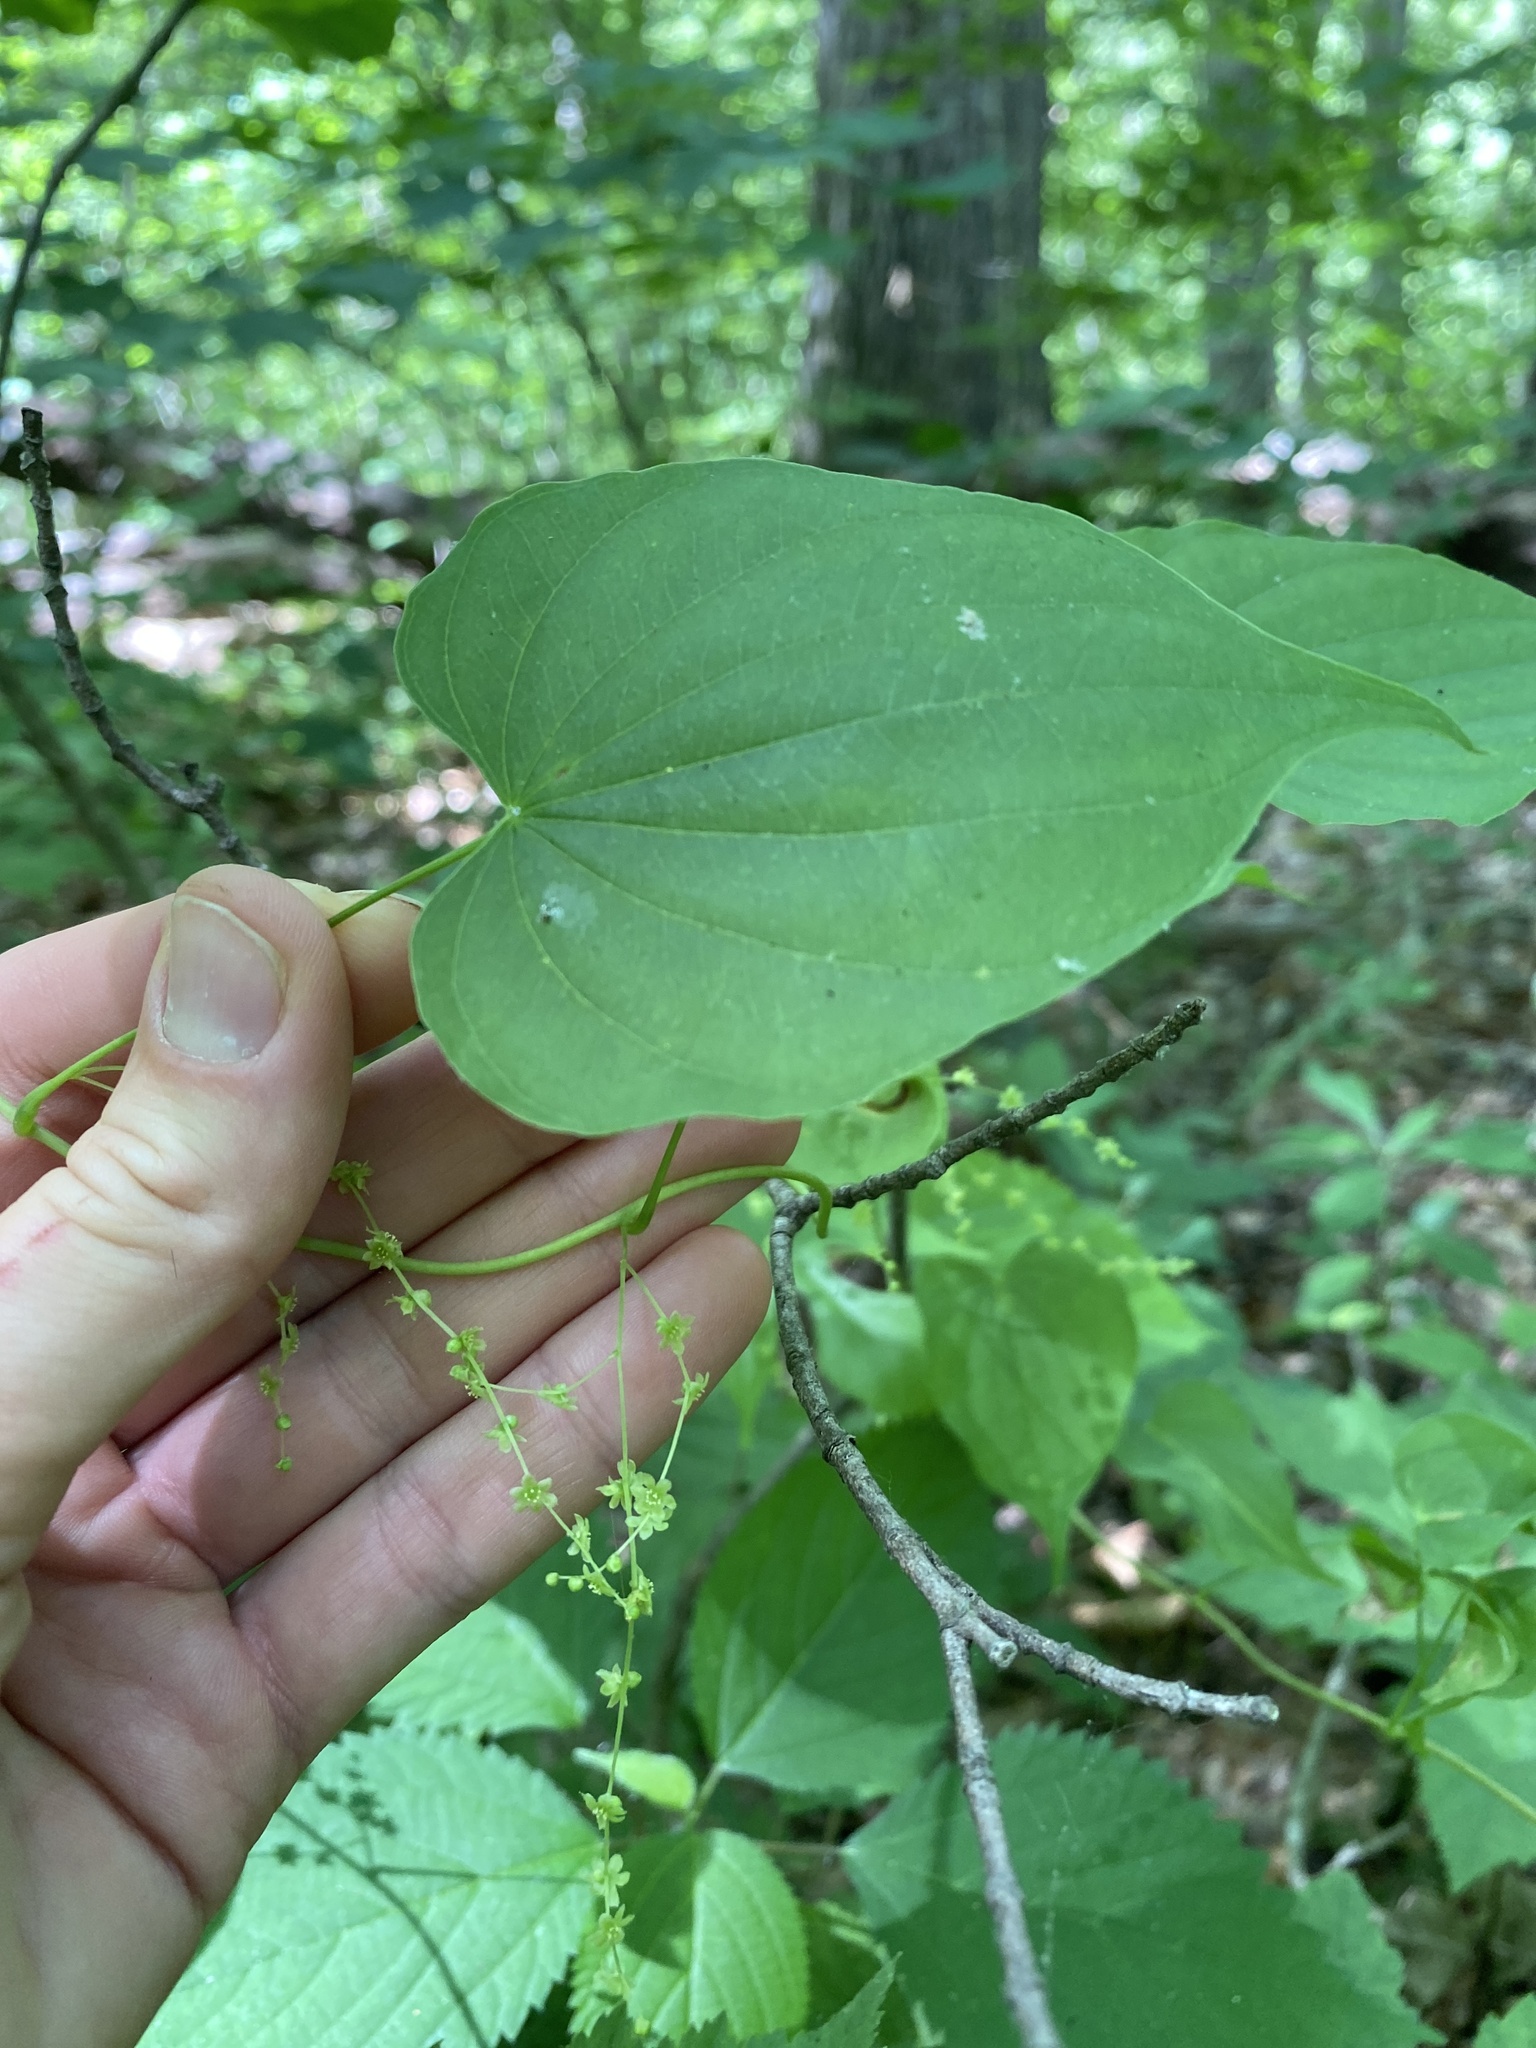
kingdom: Plantae
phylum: Tracheophyta
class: Liliopsida
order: Dioscoreales
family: Dioscoreaceae
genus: Dioscorea
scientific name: Dioscorea villosa
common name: Wild yam
